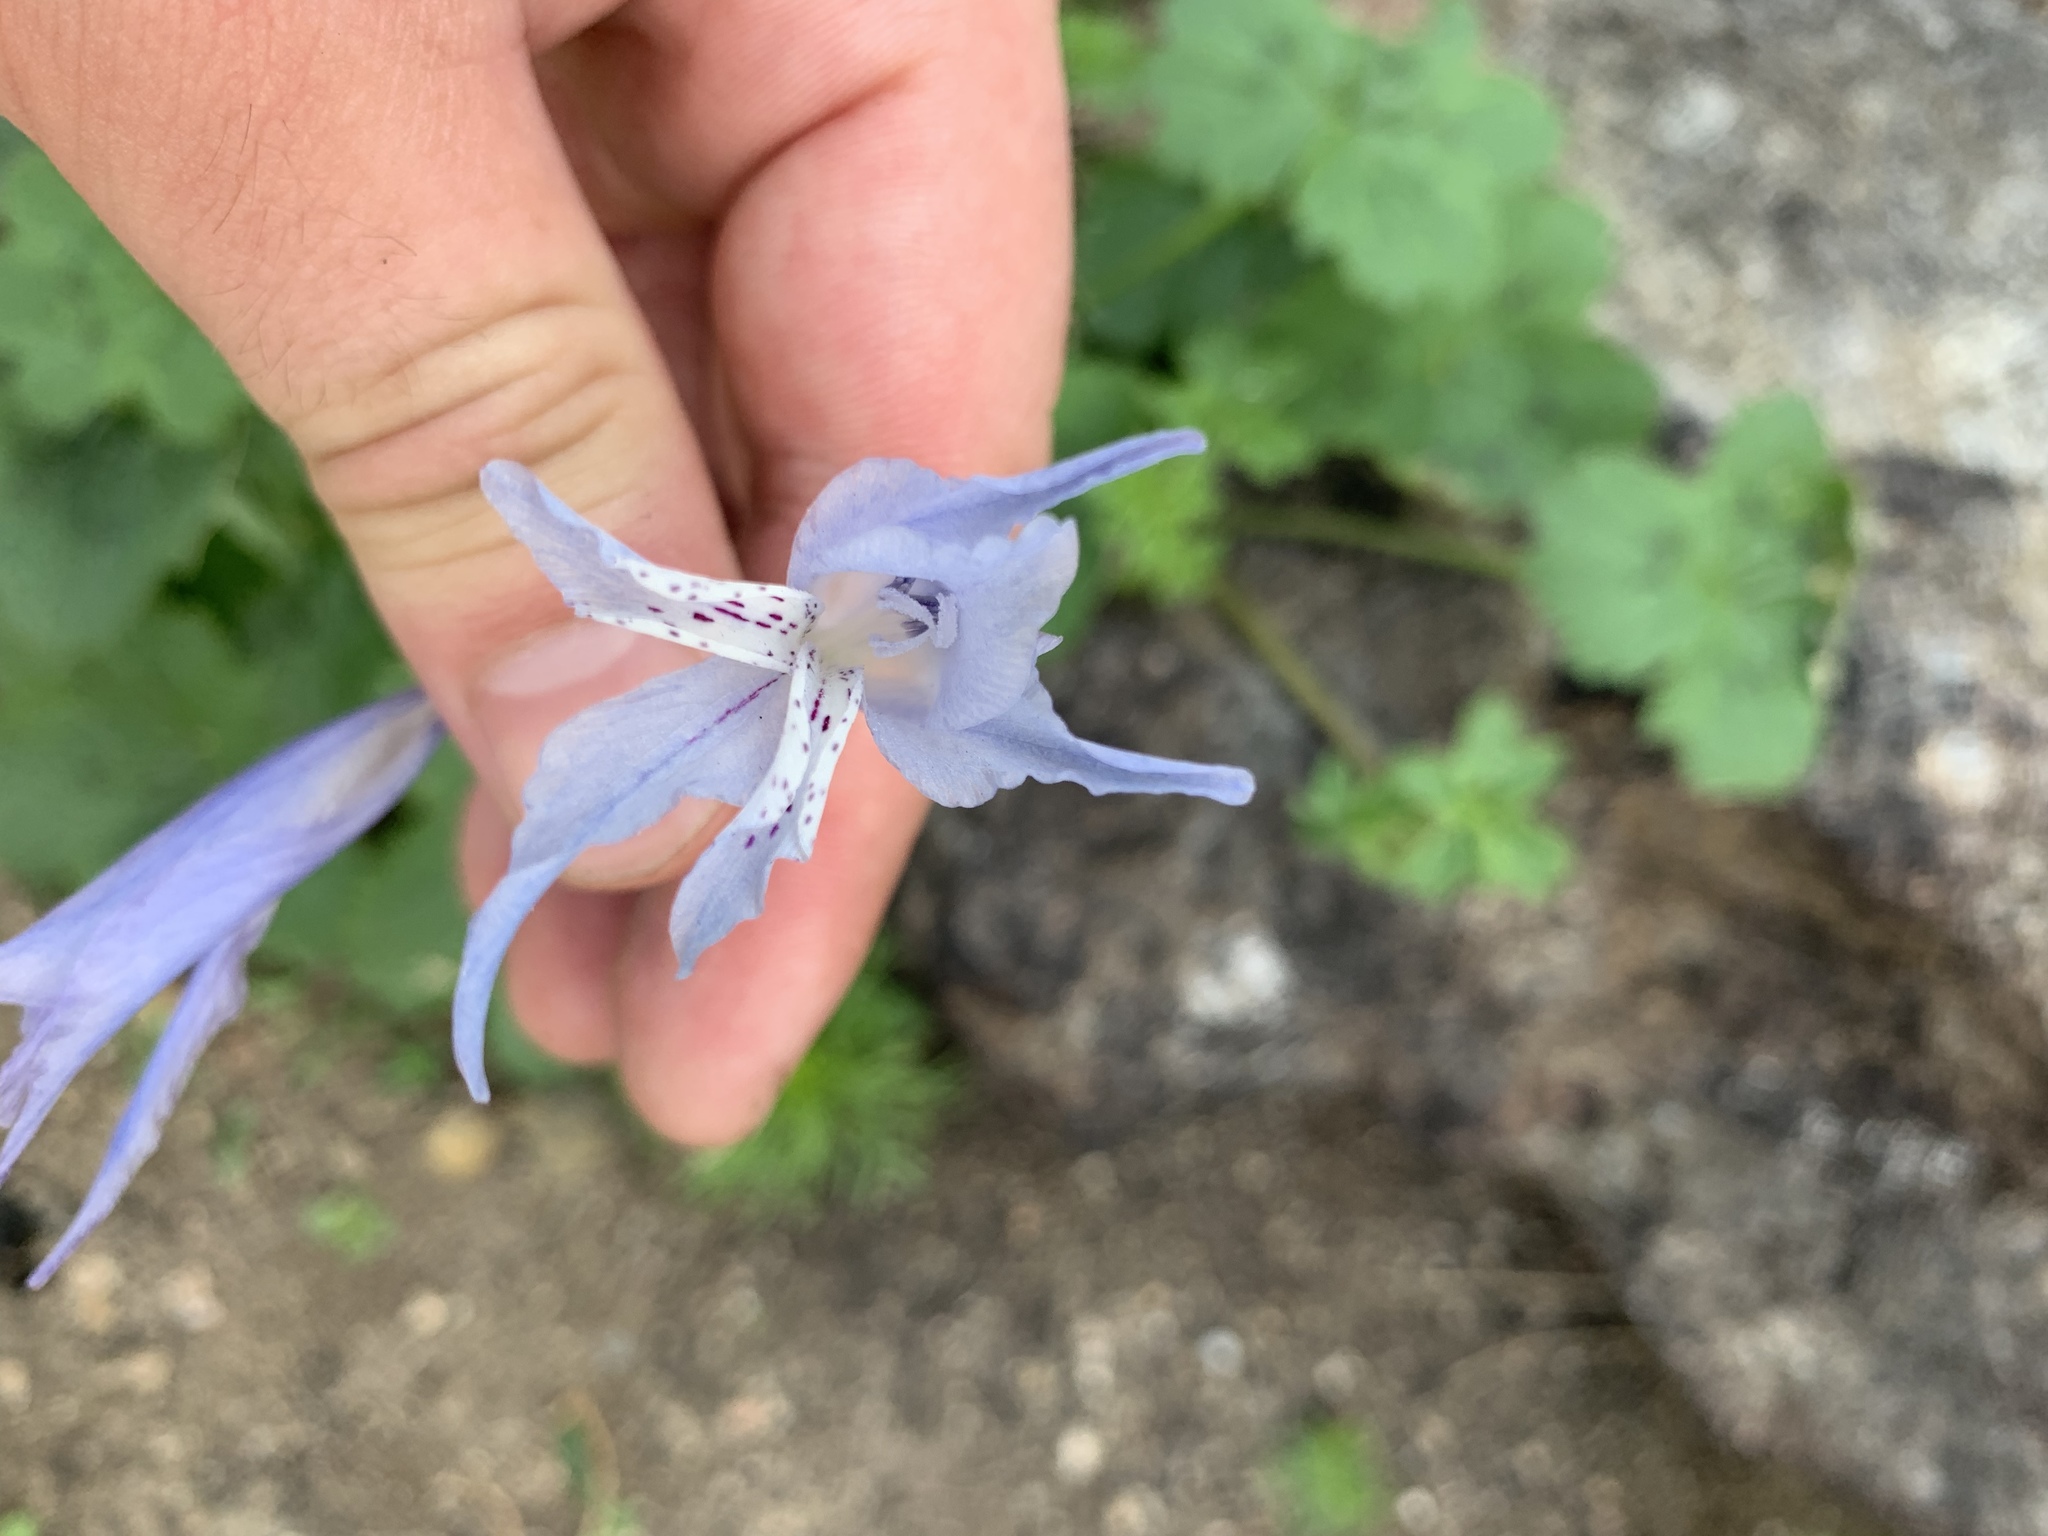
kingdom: Plantae
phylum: Tracheophyta
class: Liliopsida
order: Asparagales
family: Iridaceae
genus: Gladiolus
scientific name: Gladiolus gracilis
